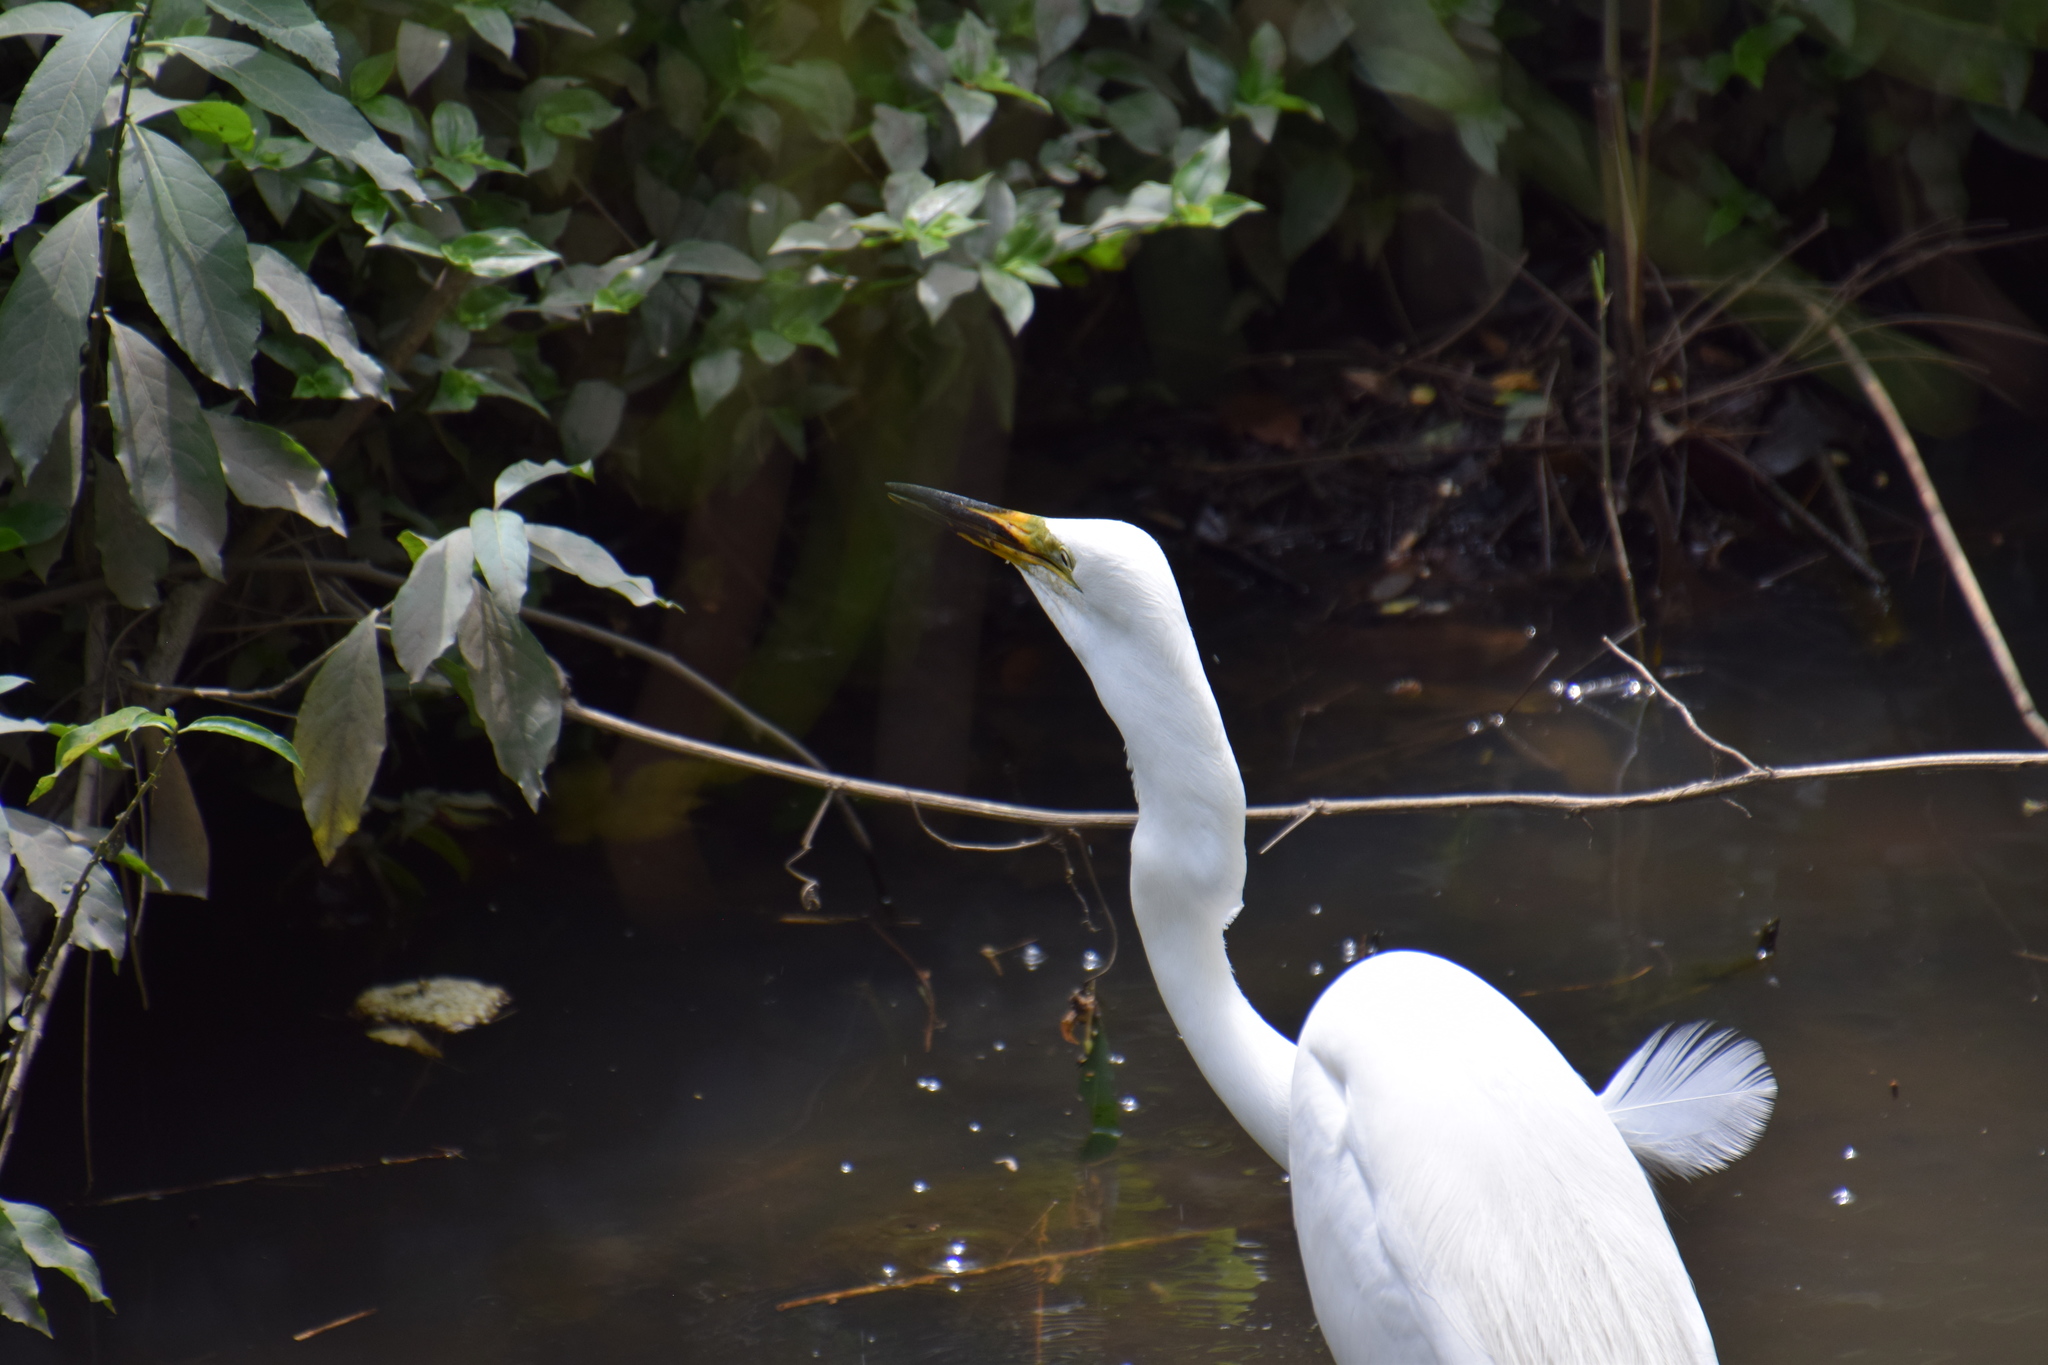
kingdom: Animalia
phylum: Chordata
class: Aves
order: Pelecaniformes
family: Ardeidae
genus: Ardea
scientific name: Ardea modesta
